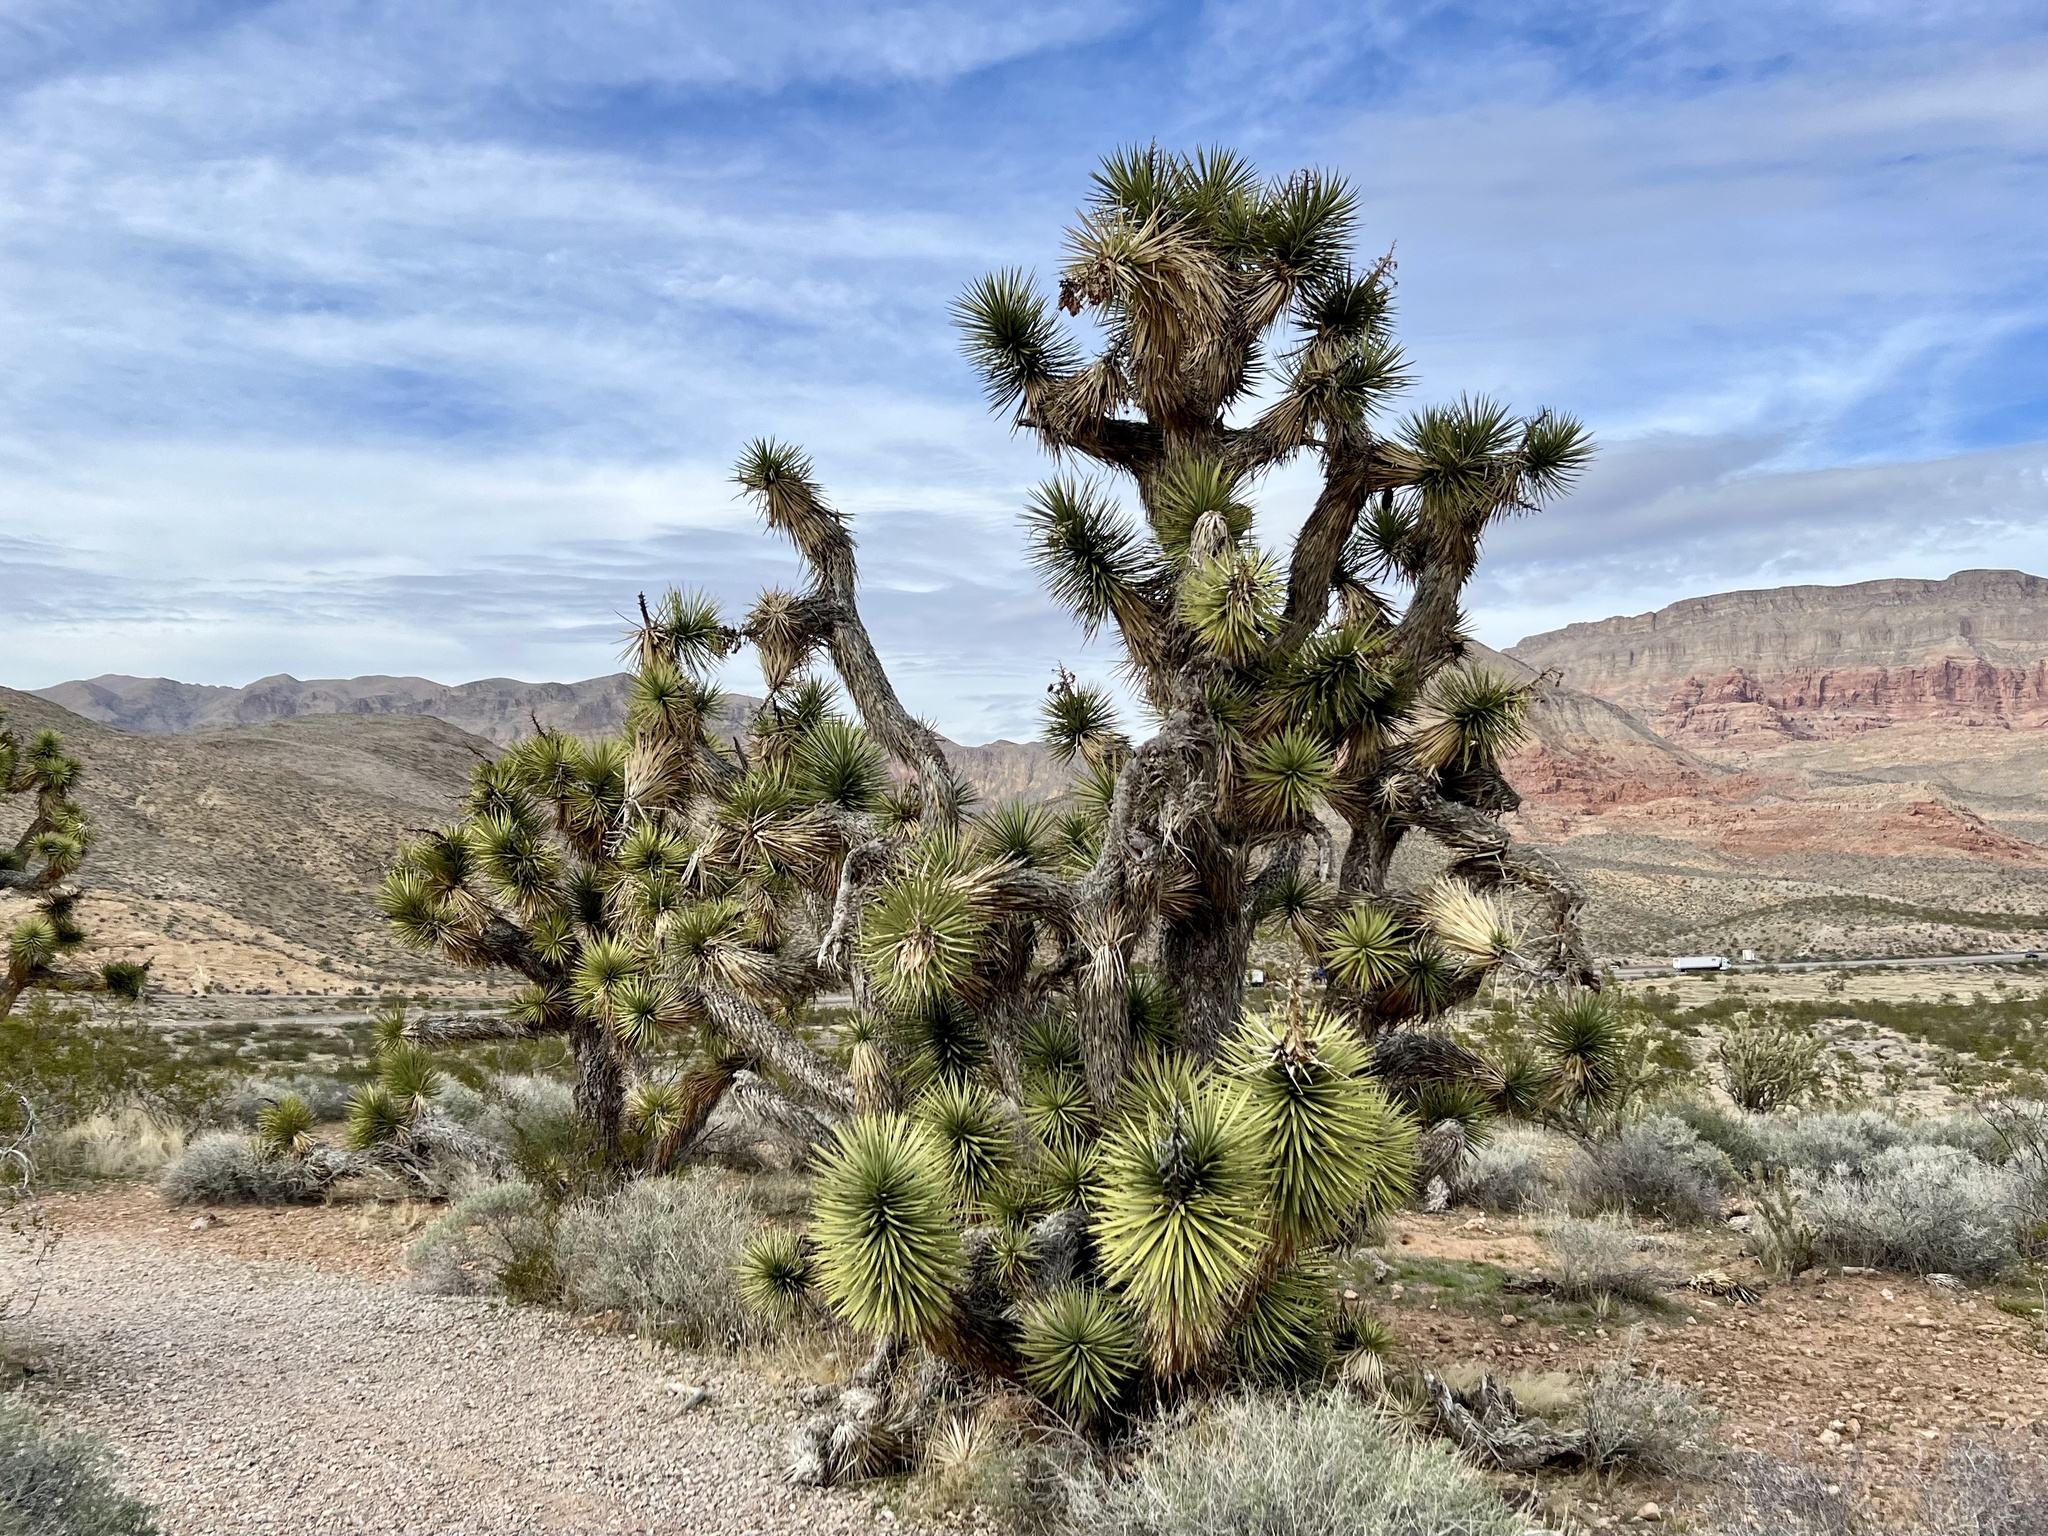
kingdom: Plantae
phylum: Tracheophyta
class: Liliopsida
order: Asparagales
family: Asparagaceae
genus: Yucca
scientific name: Yucca brevifolia
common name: Joshua tree
